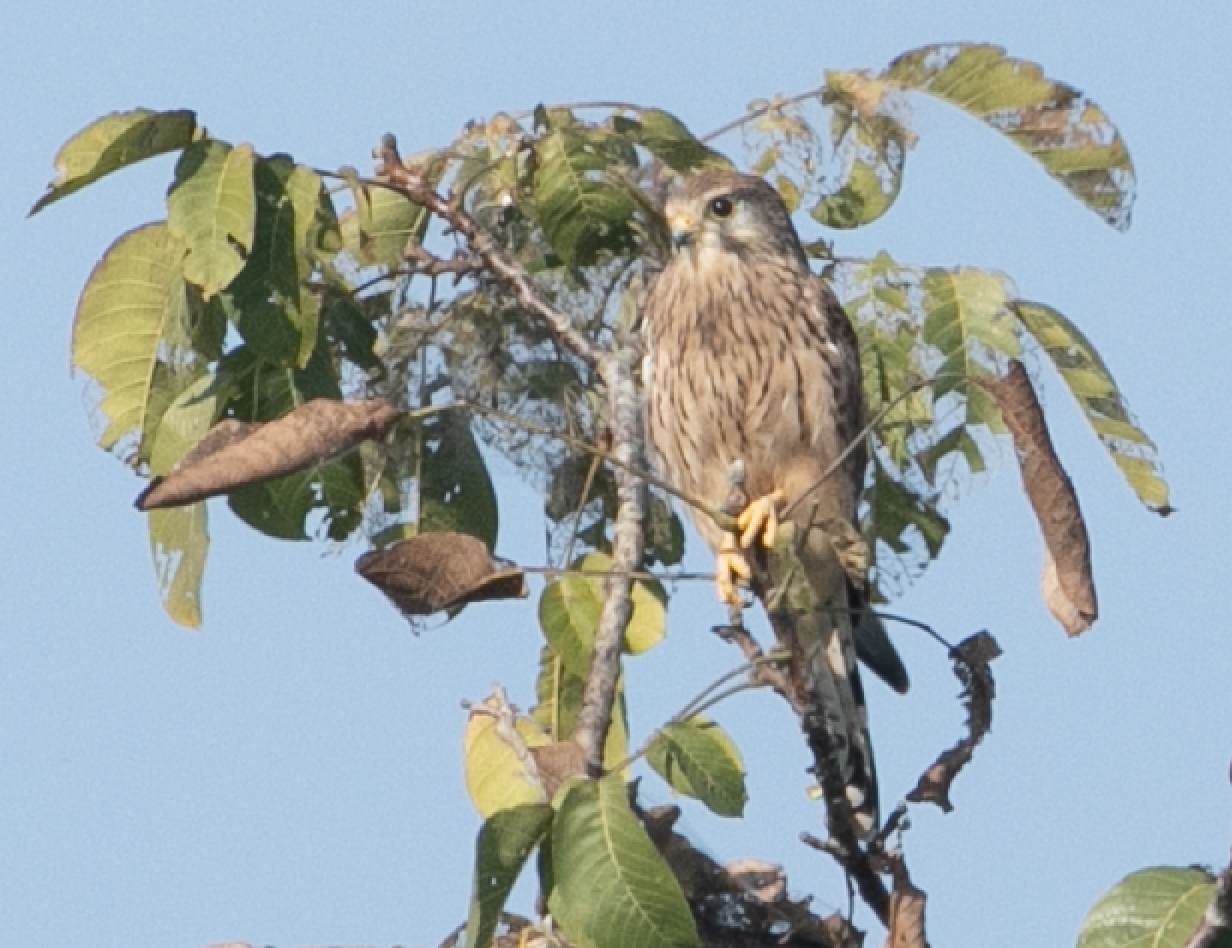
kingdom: Animalia
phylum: Chordata
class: Aves
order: Falconiformes
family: Falconidae
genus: Falco
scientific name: Falco tinnunculus
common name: Common kestrel
